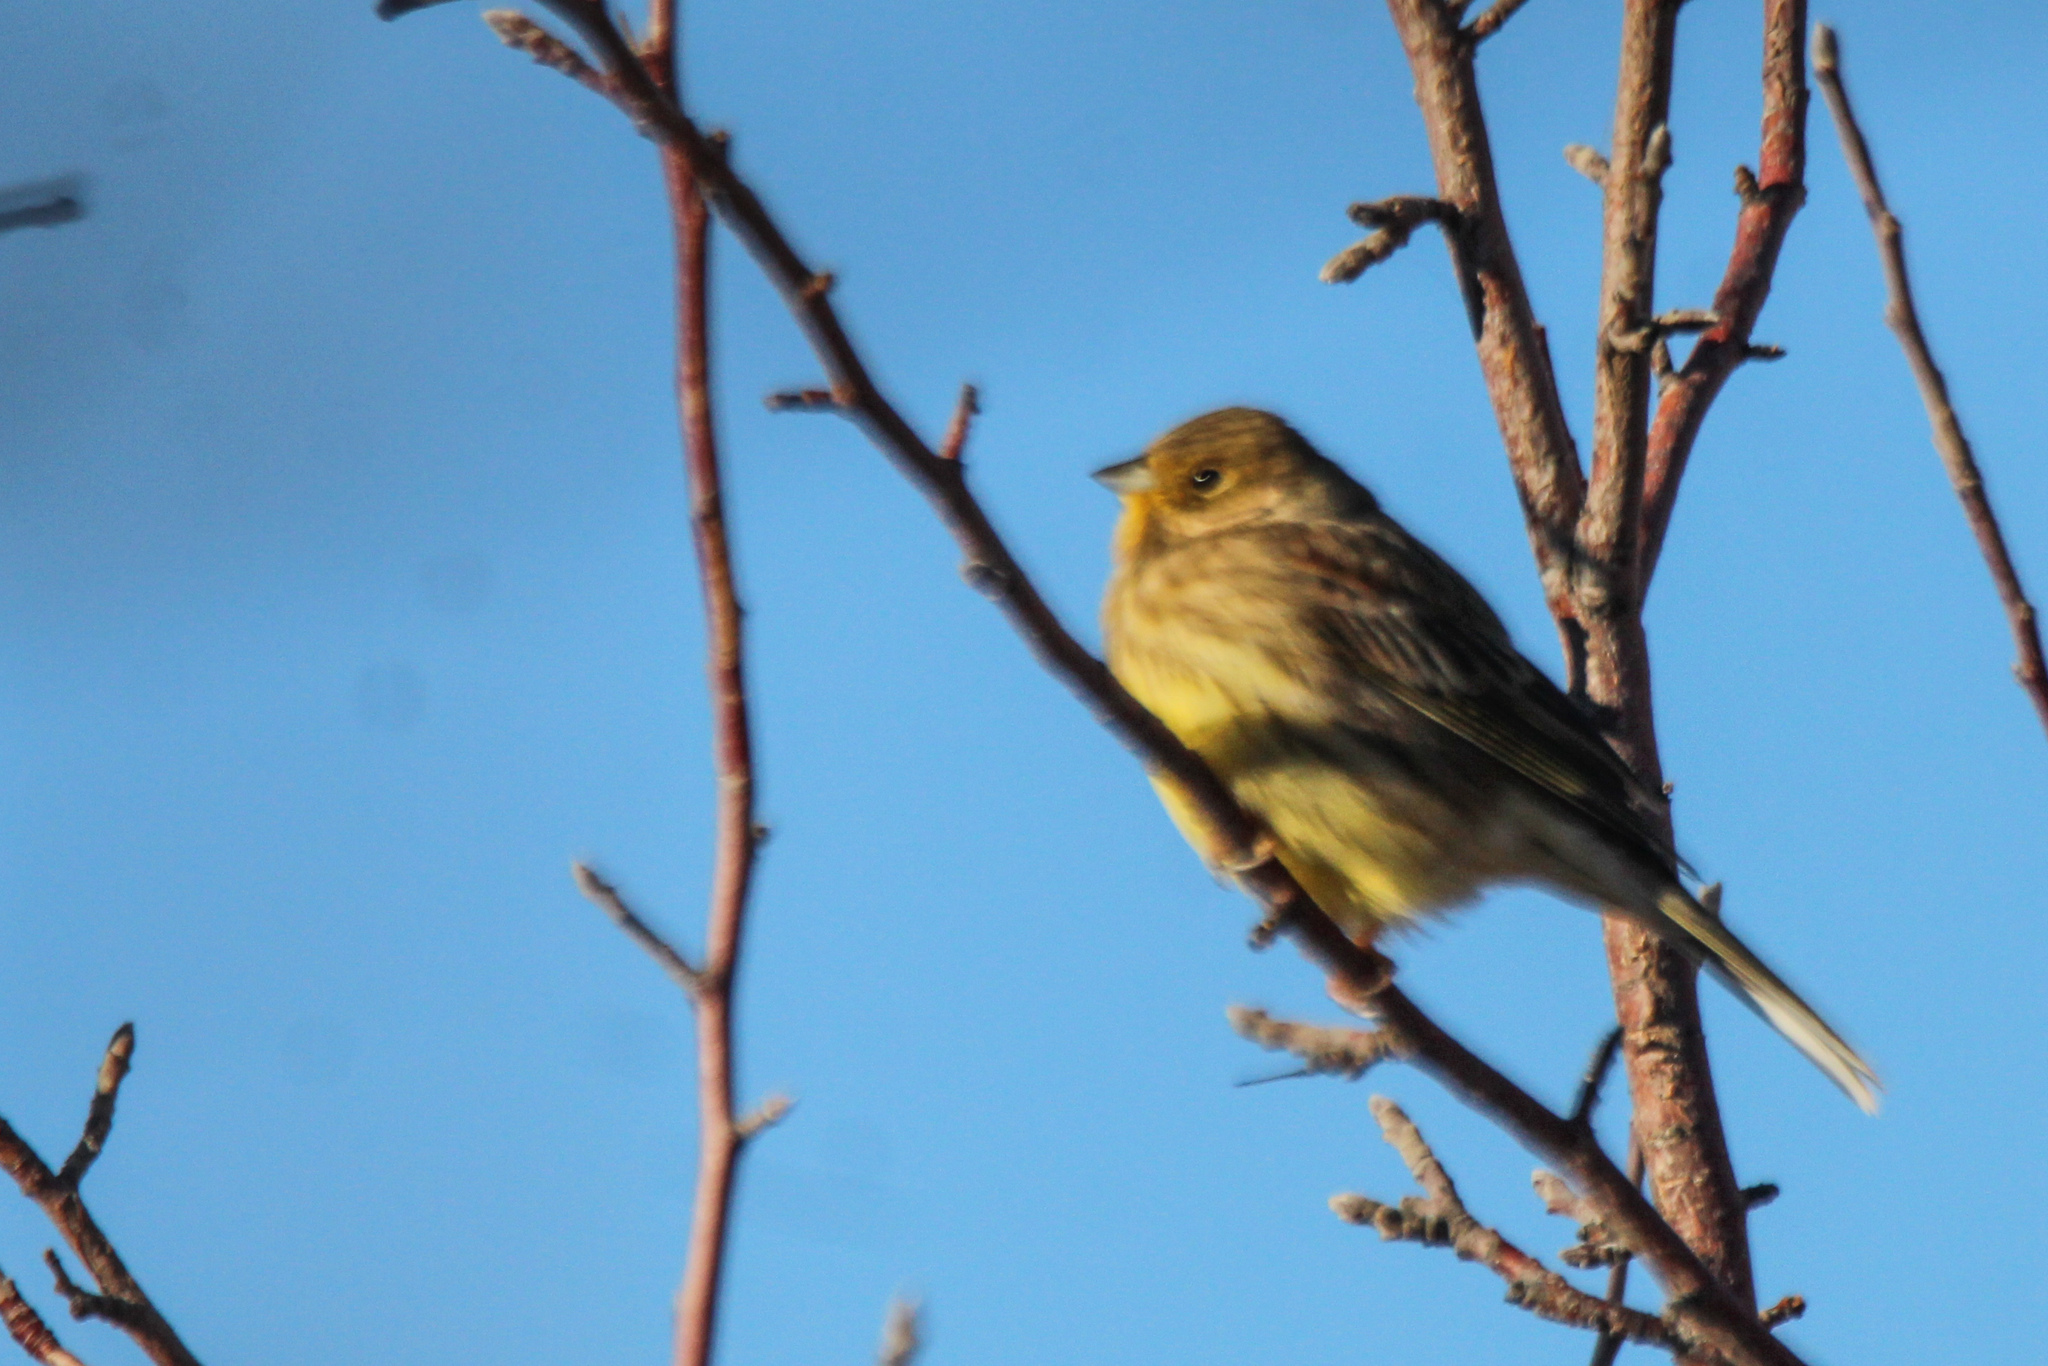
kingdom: Animalia
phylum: Chordata
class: Aves
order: Passeriformes
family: Emberizidae
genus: Emberiza
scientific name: Emberiza citrinella
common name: Yellowhammer
